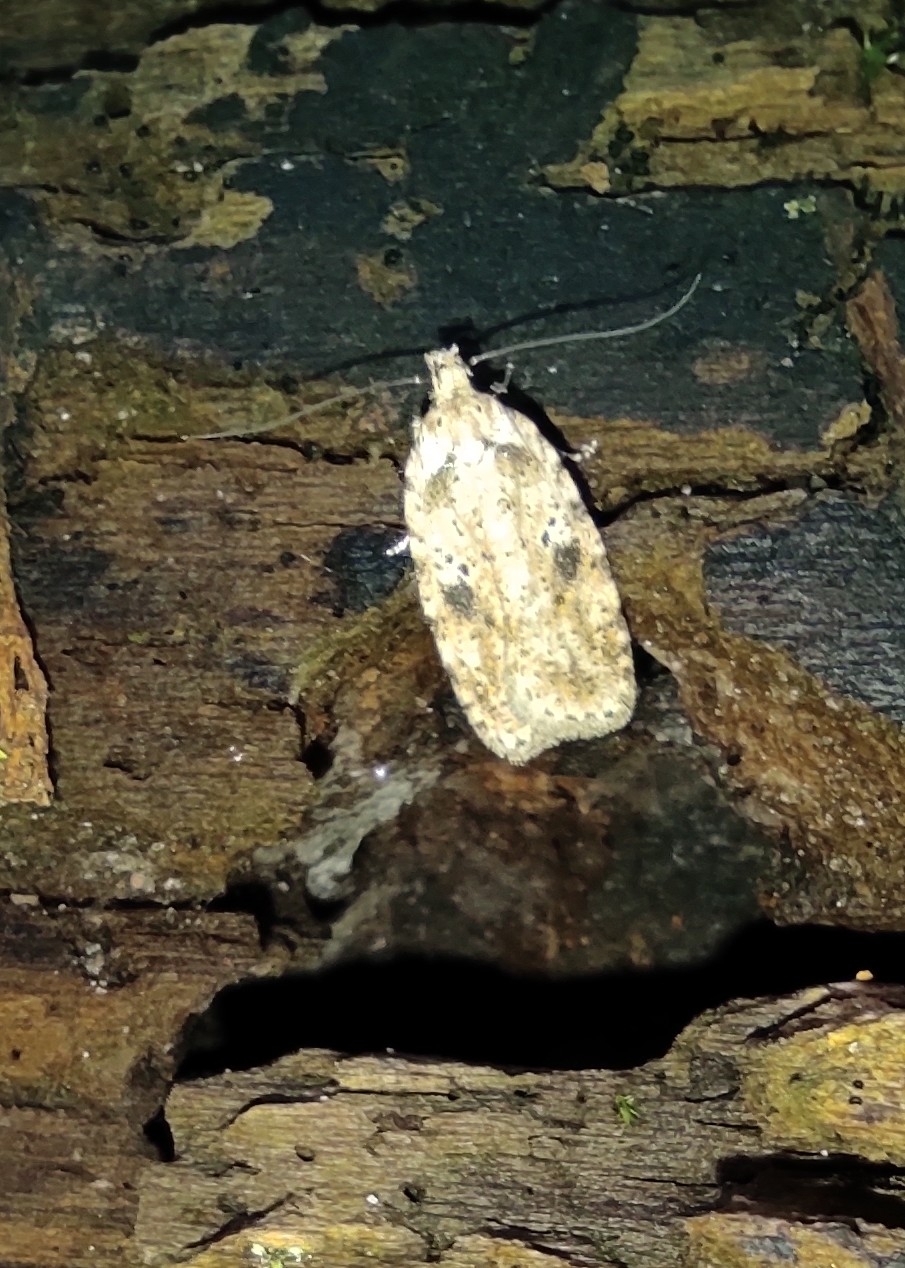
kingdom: Animalia
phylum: Arthropoda
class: Insecta
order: Lepidoptera
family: Depressariidae
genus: Agonopterix
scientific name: Agonopterix arenella
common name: Brindled flat-body
